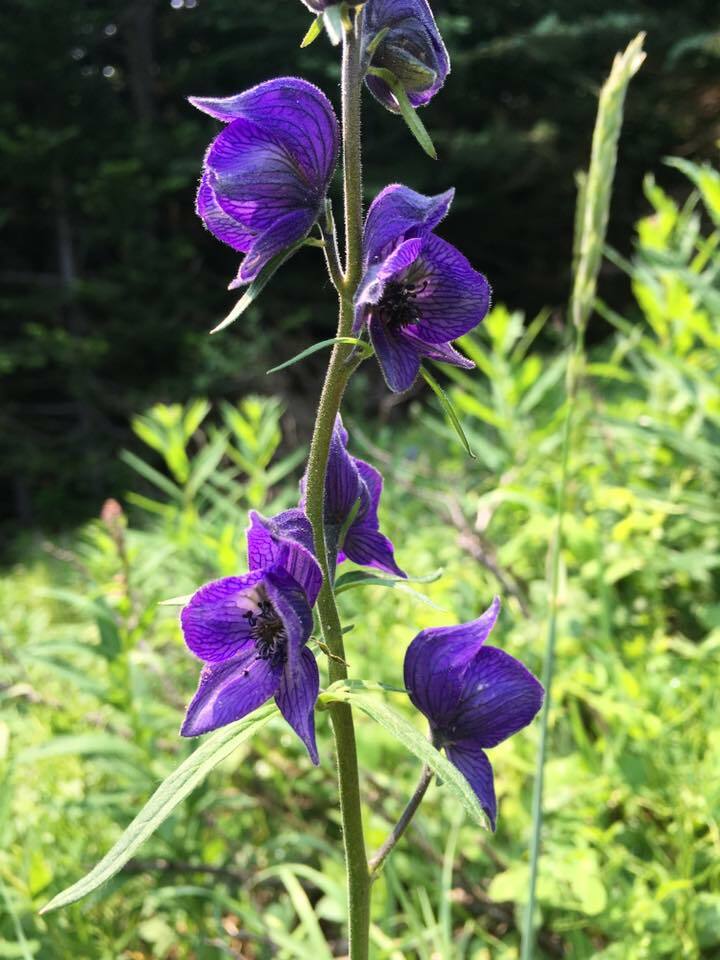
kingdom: Plantae
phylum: Tracheophyta
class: Magnoliopsida
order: Ranunculales
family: Ranunculaceae
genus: Aconitum
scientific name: Aconitum delphiniifolium
